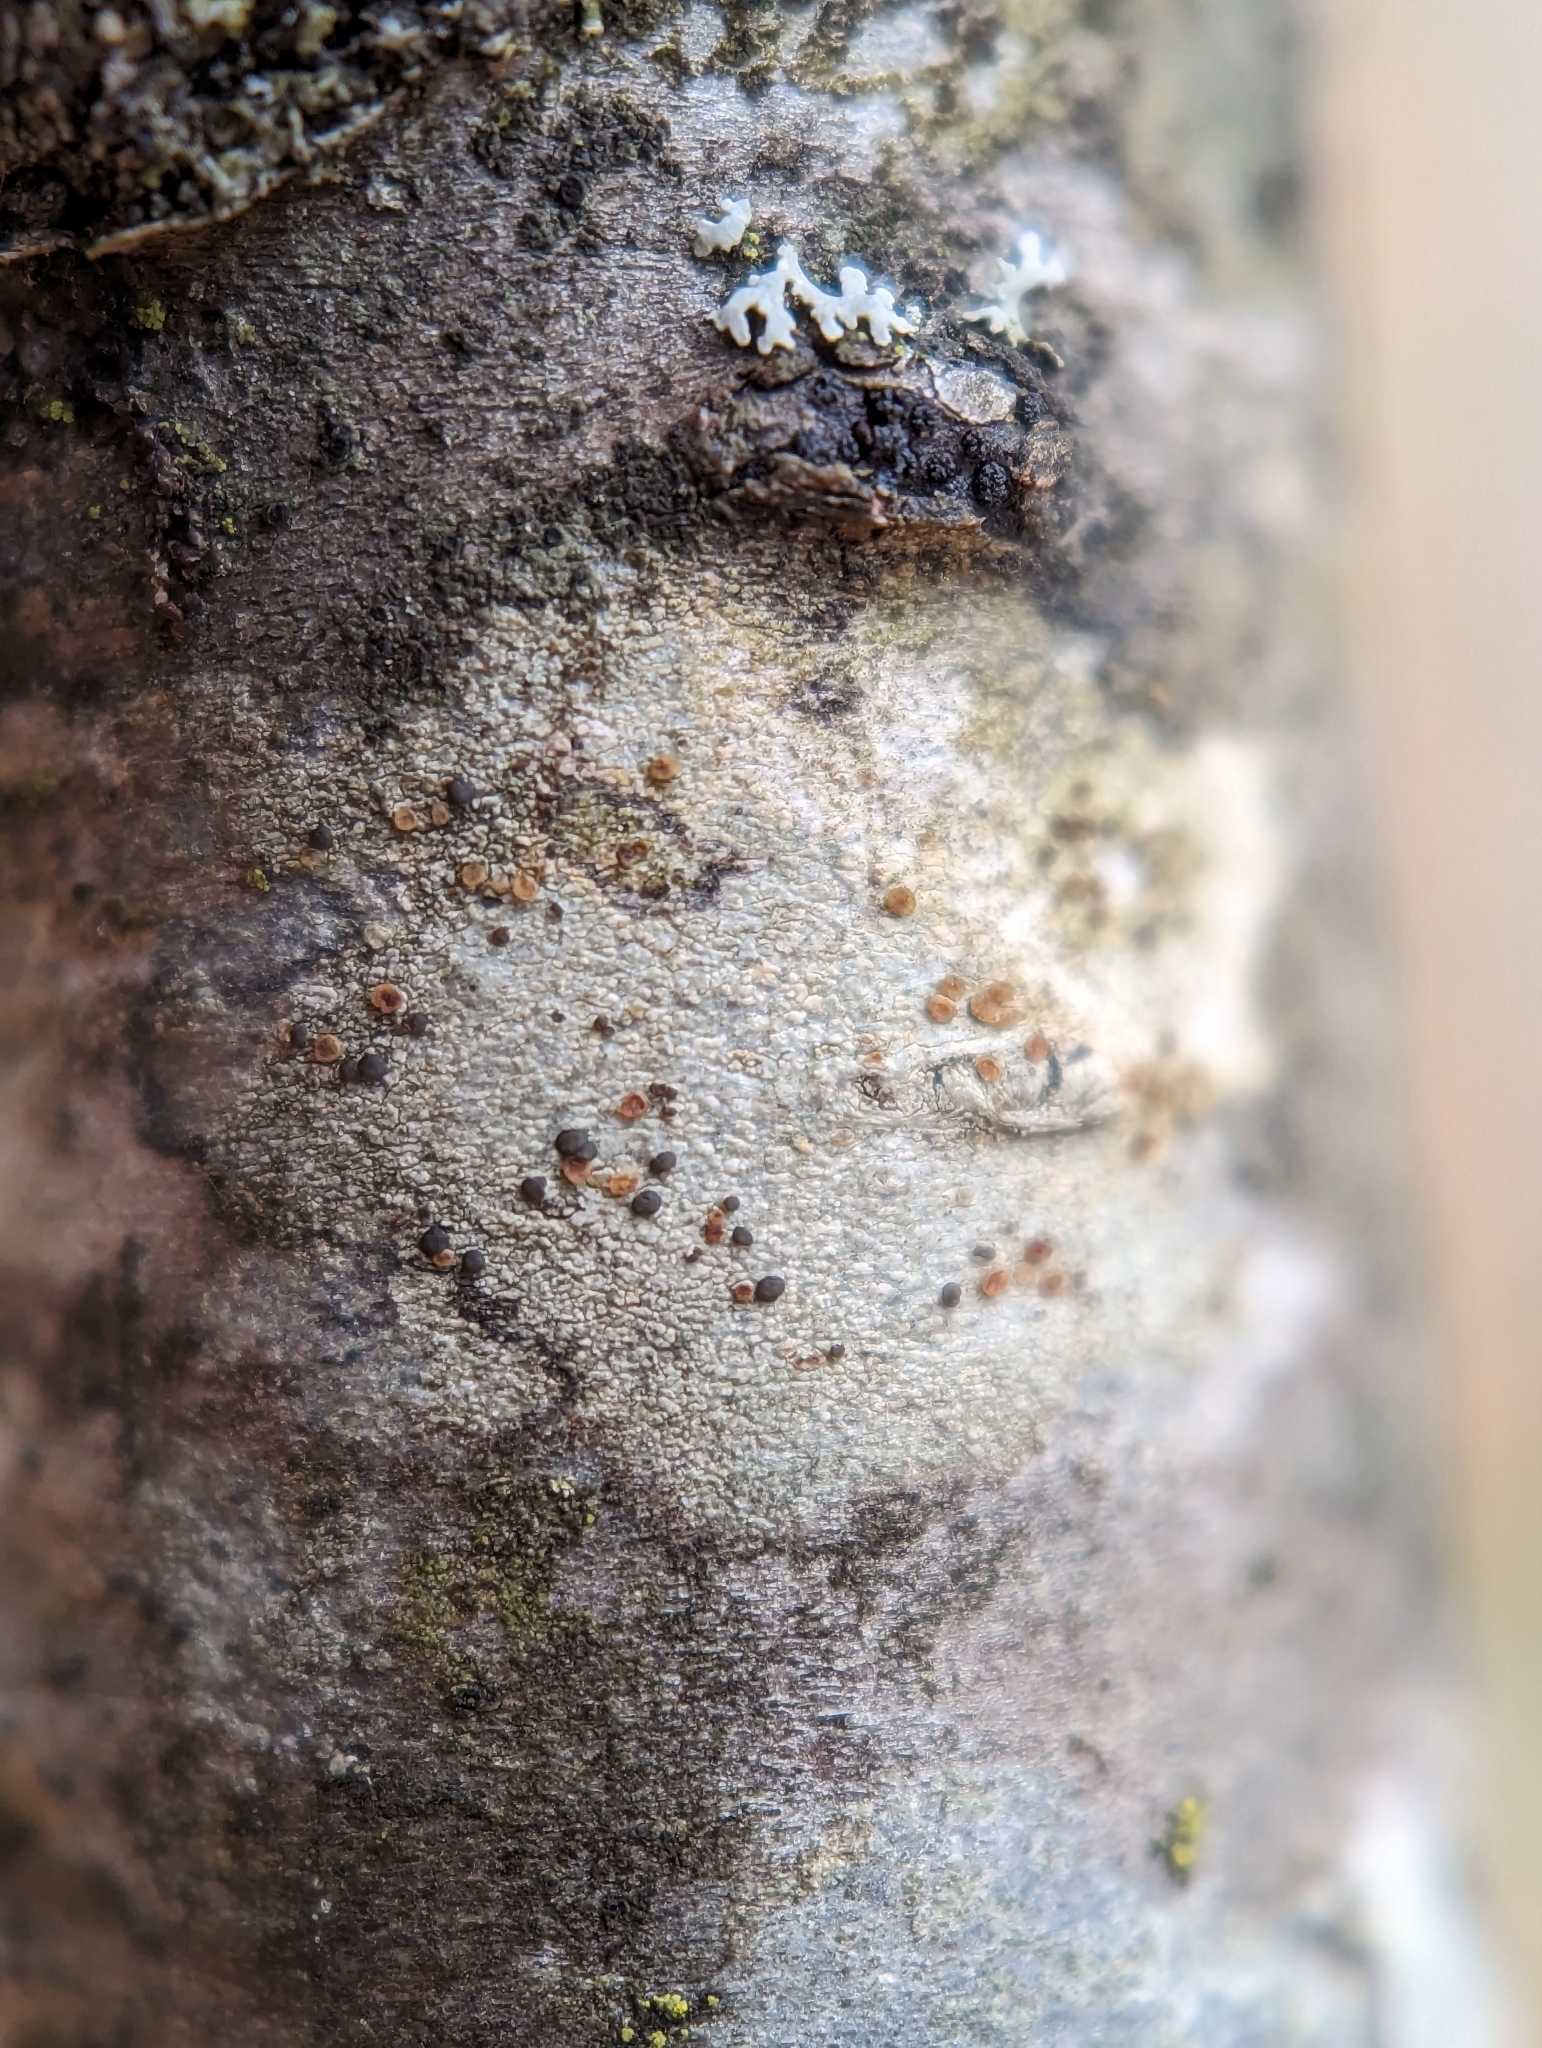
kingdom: Fungi
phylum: Ascomycota
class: Lecanoromycetes
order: Lecanorales
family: Lecanoraceae
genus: Traponora
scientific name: Traponora varians
